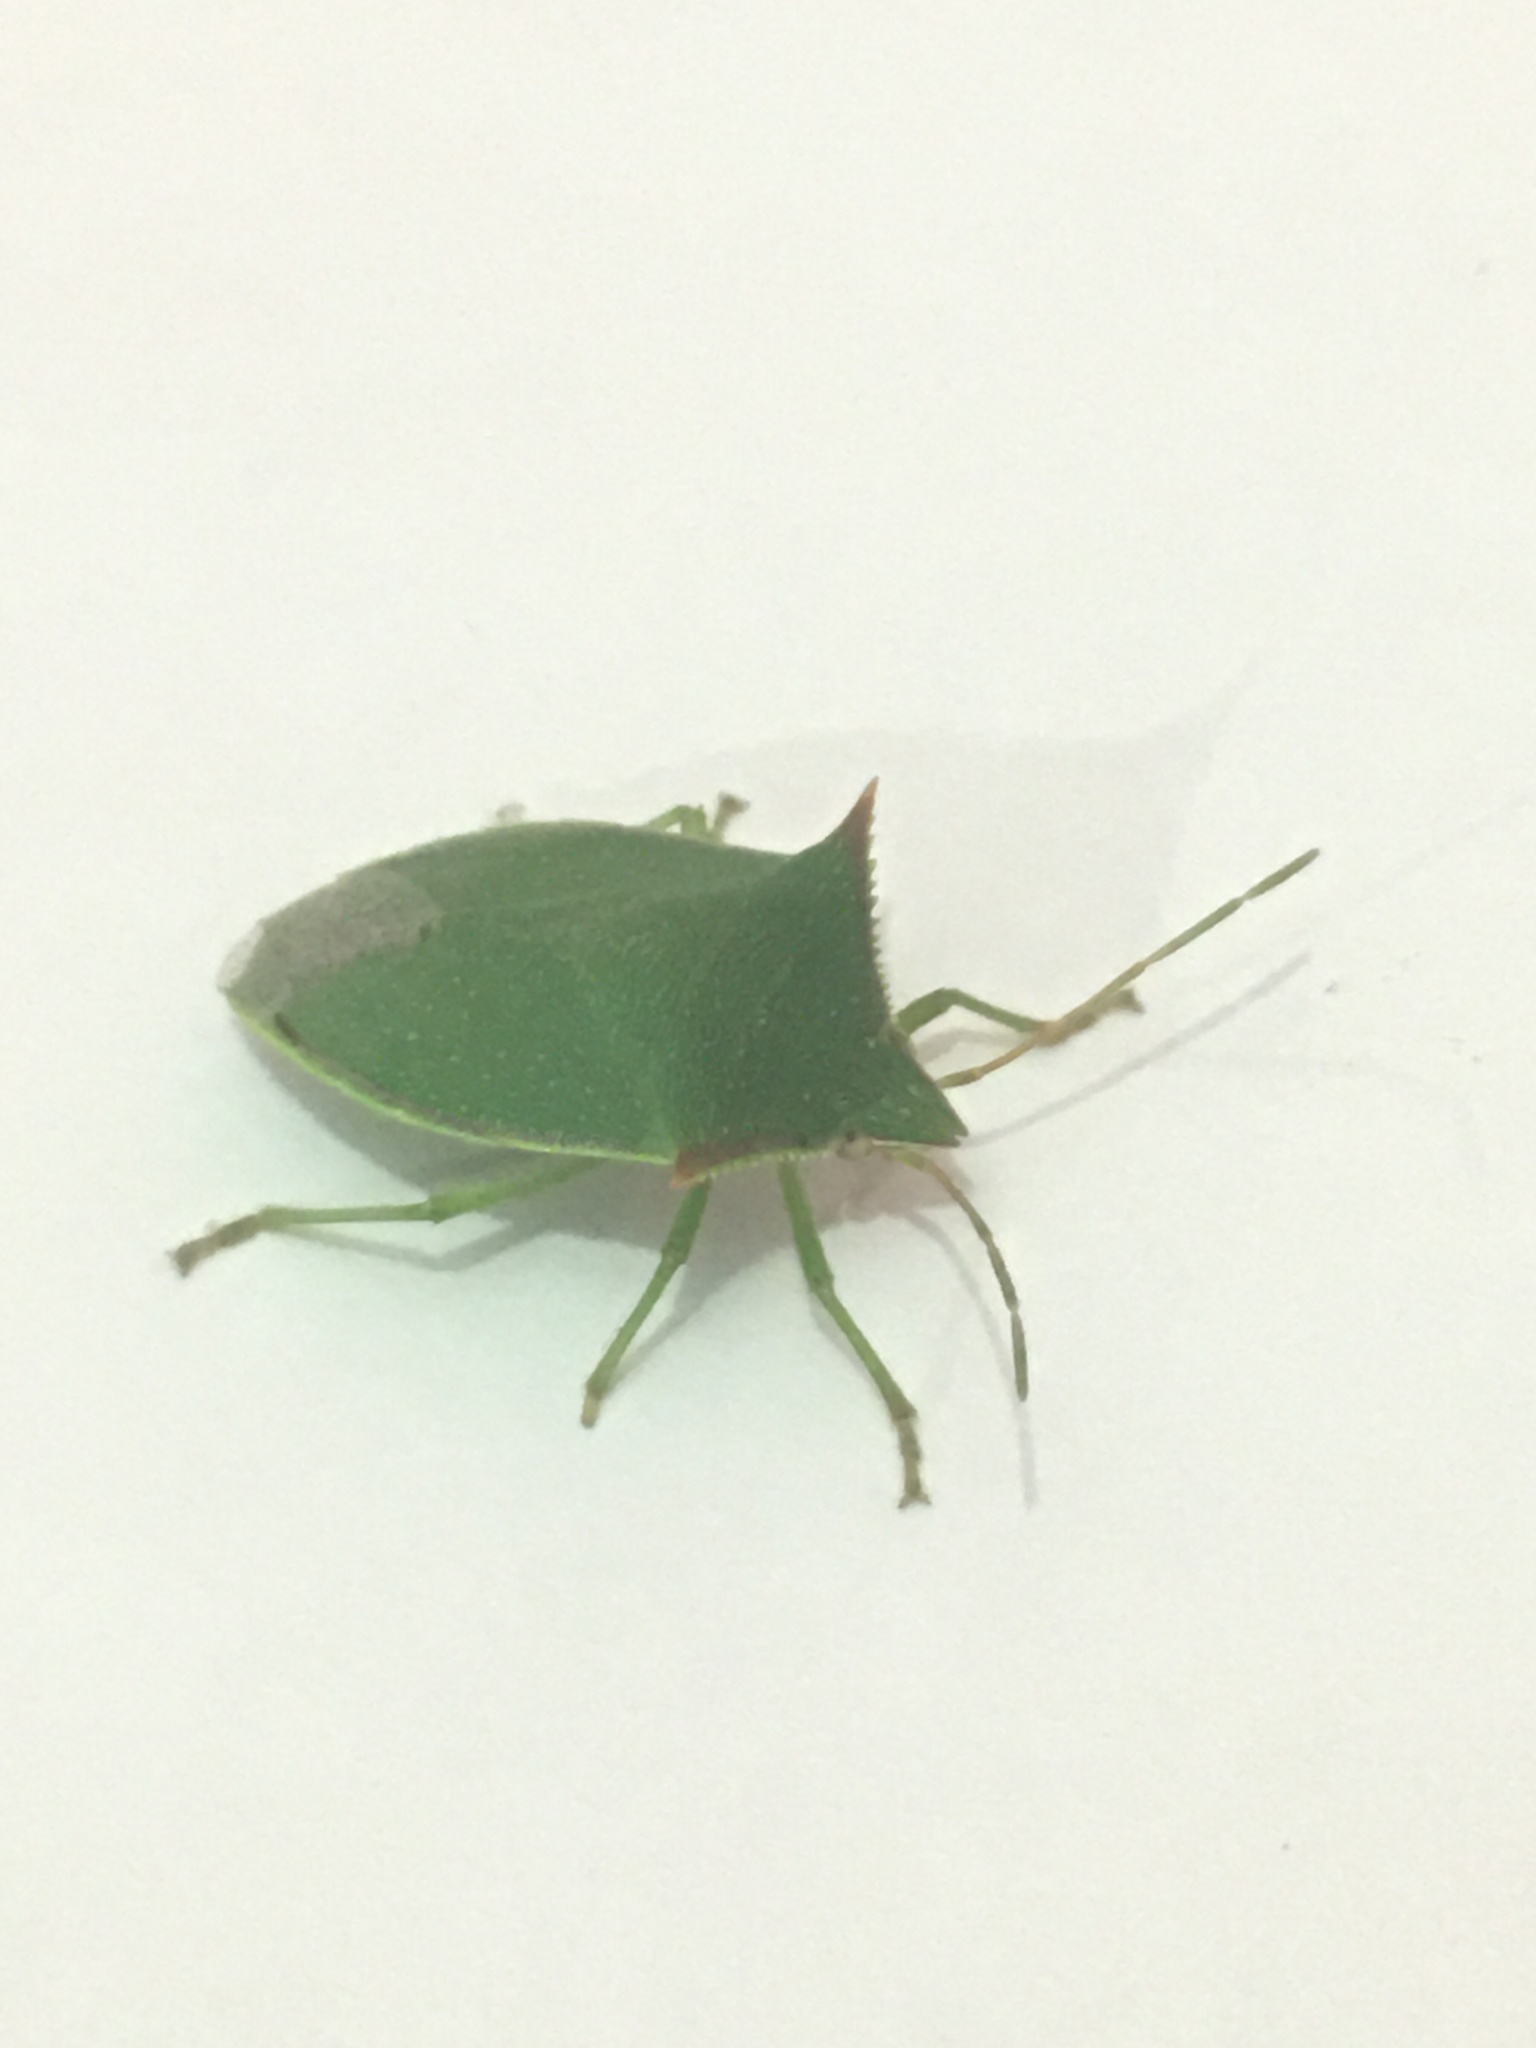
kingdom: Animalia
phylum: Arthropoda
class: Insecta
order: Hemiptera
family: Pentatomidae
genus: Loxa
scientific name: Loxa deducta
